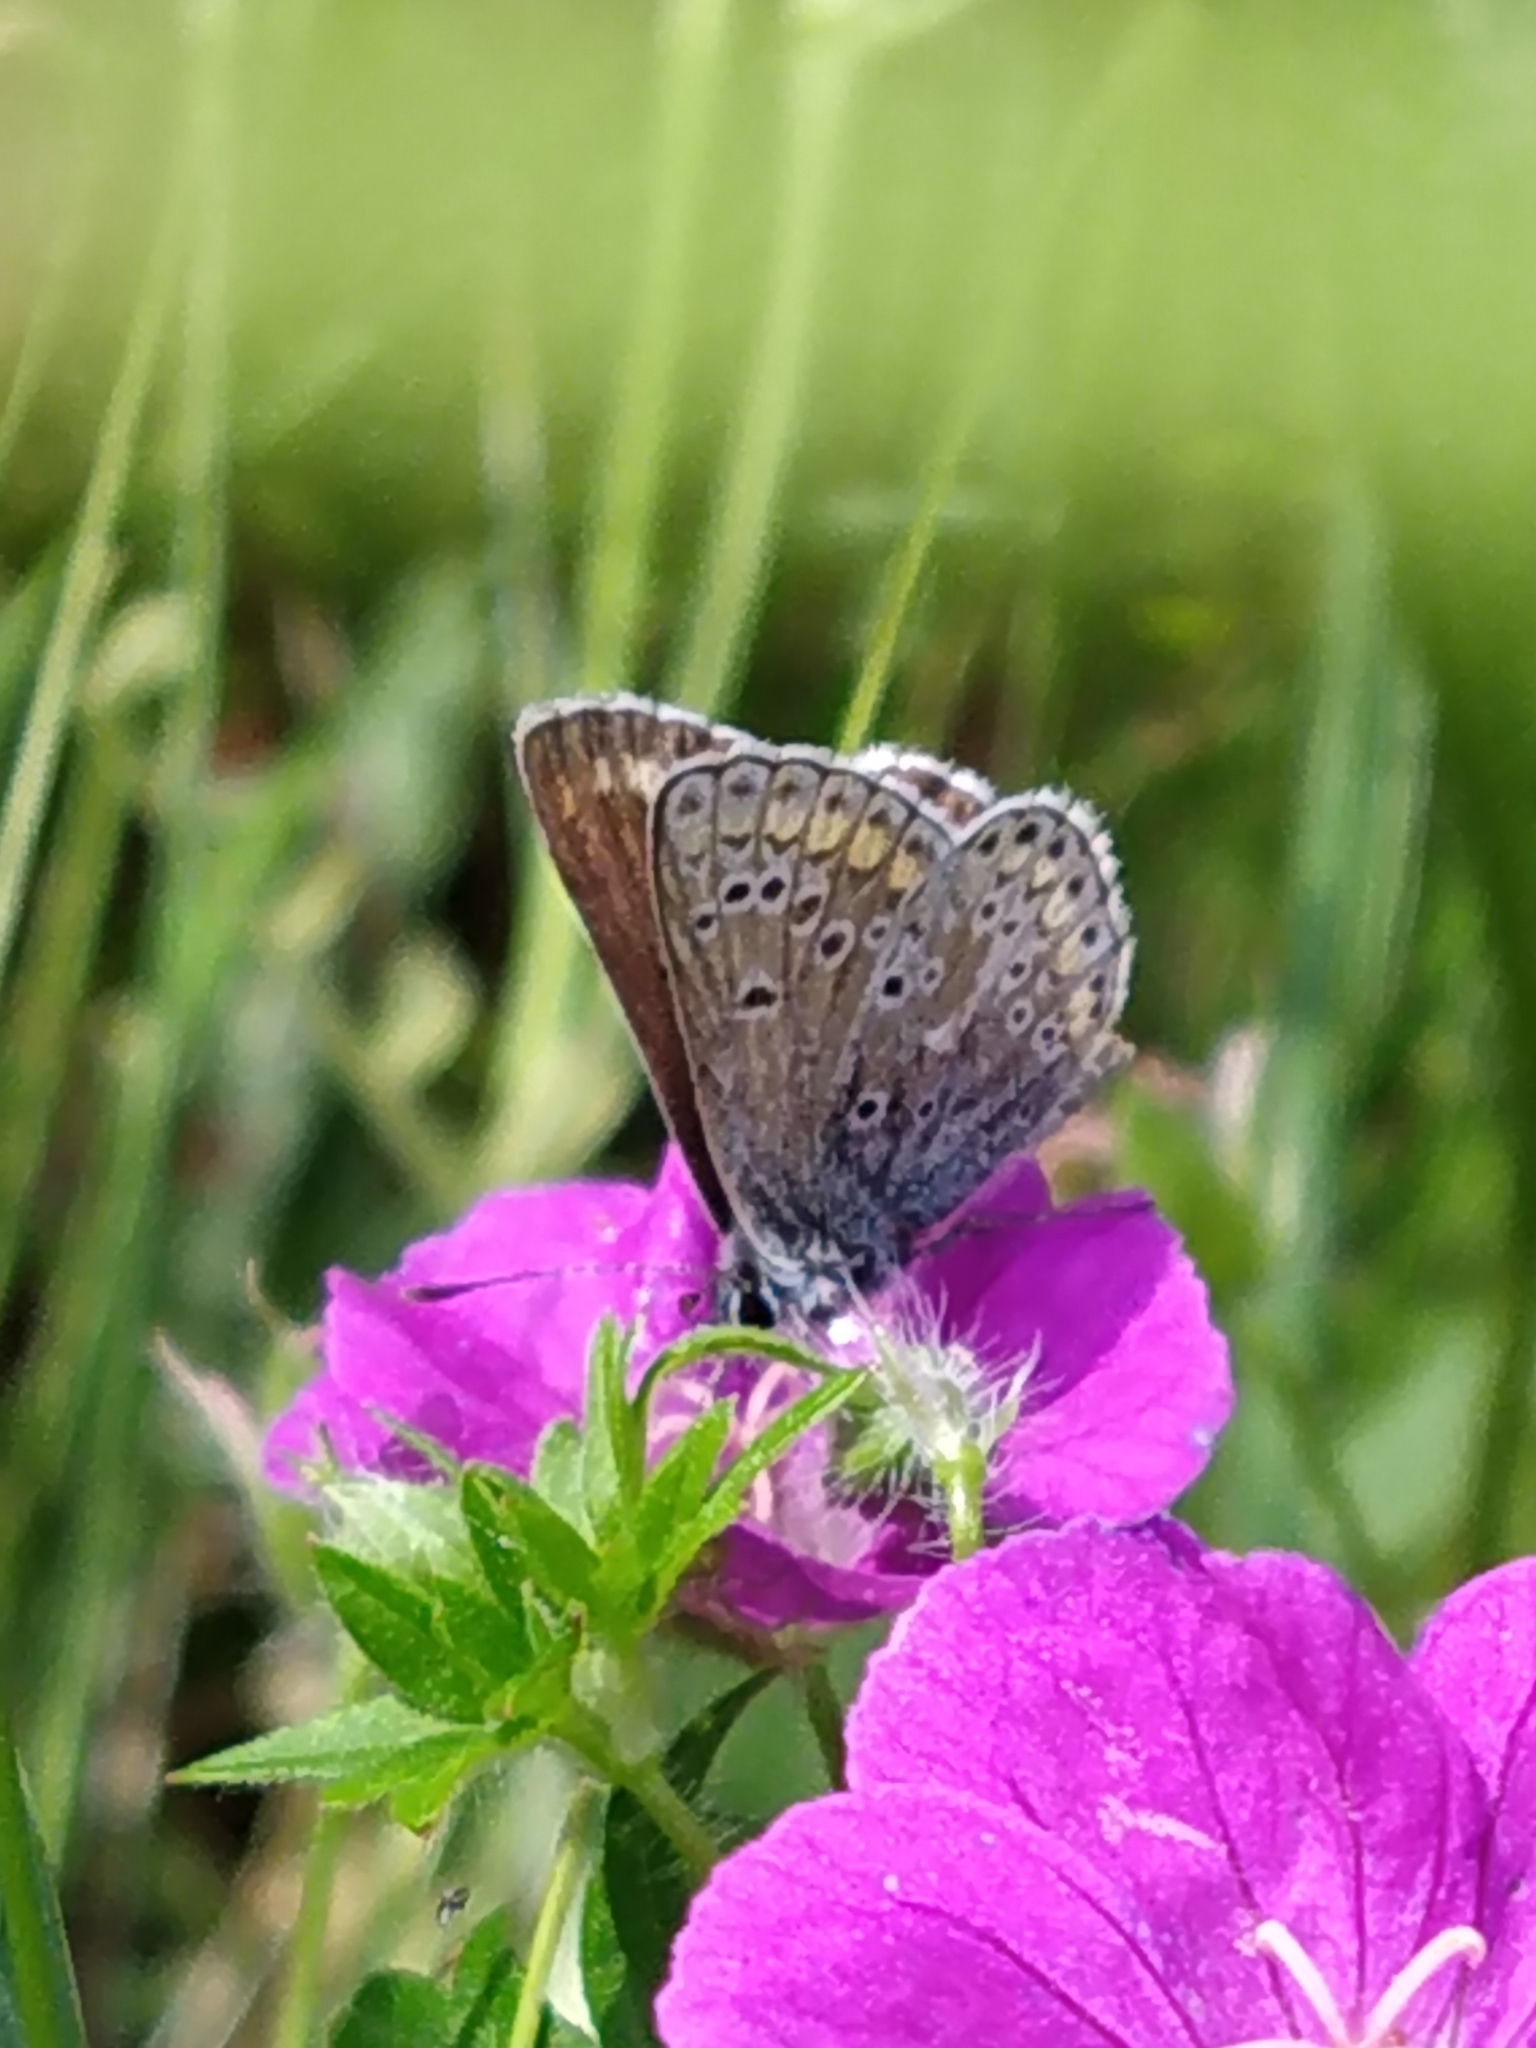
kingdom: Animalia
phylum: Arthropoda
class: Insecta
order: Lepidoptera
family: Lycaenidae
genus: Polyommatus
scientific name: Polyommatus icarus
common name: Common blue
